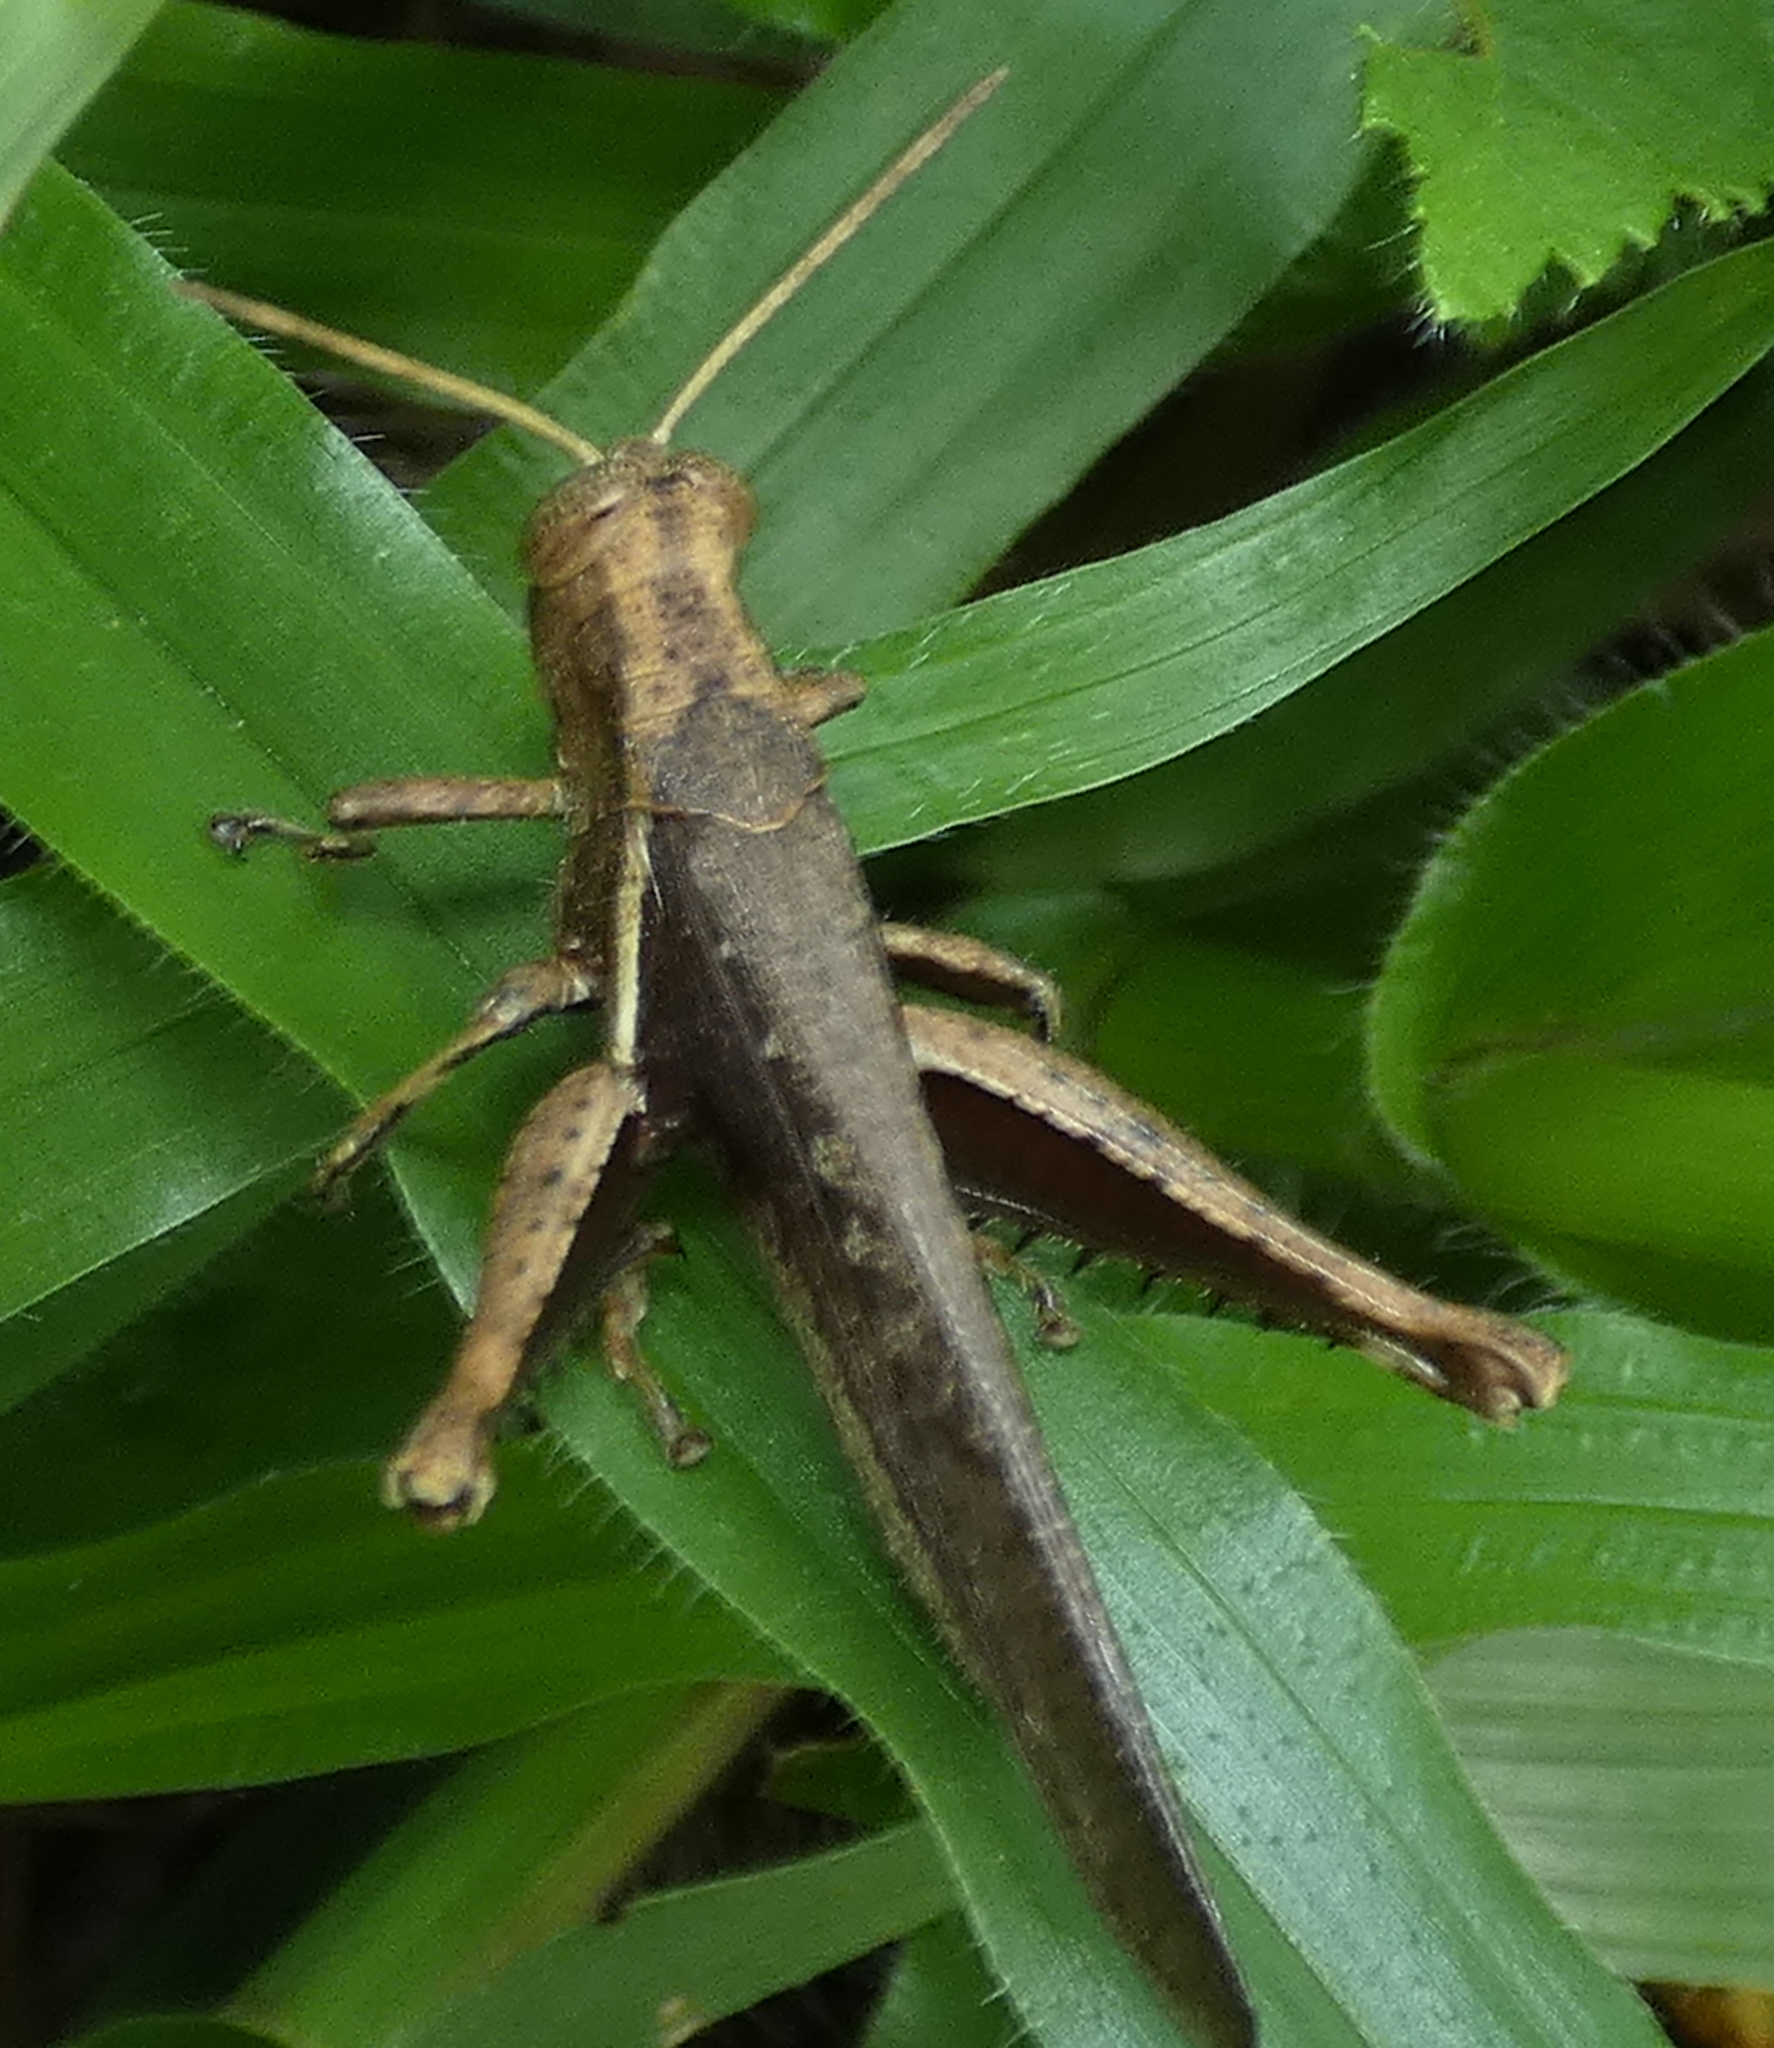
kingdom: Animalia
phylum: Arthropoda
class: Insecta
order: Orthoptera
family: Acrididae
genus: Abracris
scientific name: Abracris flavolineata
